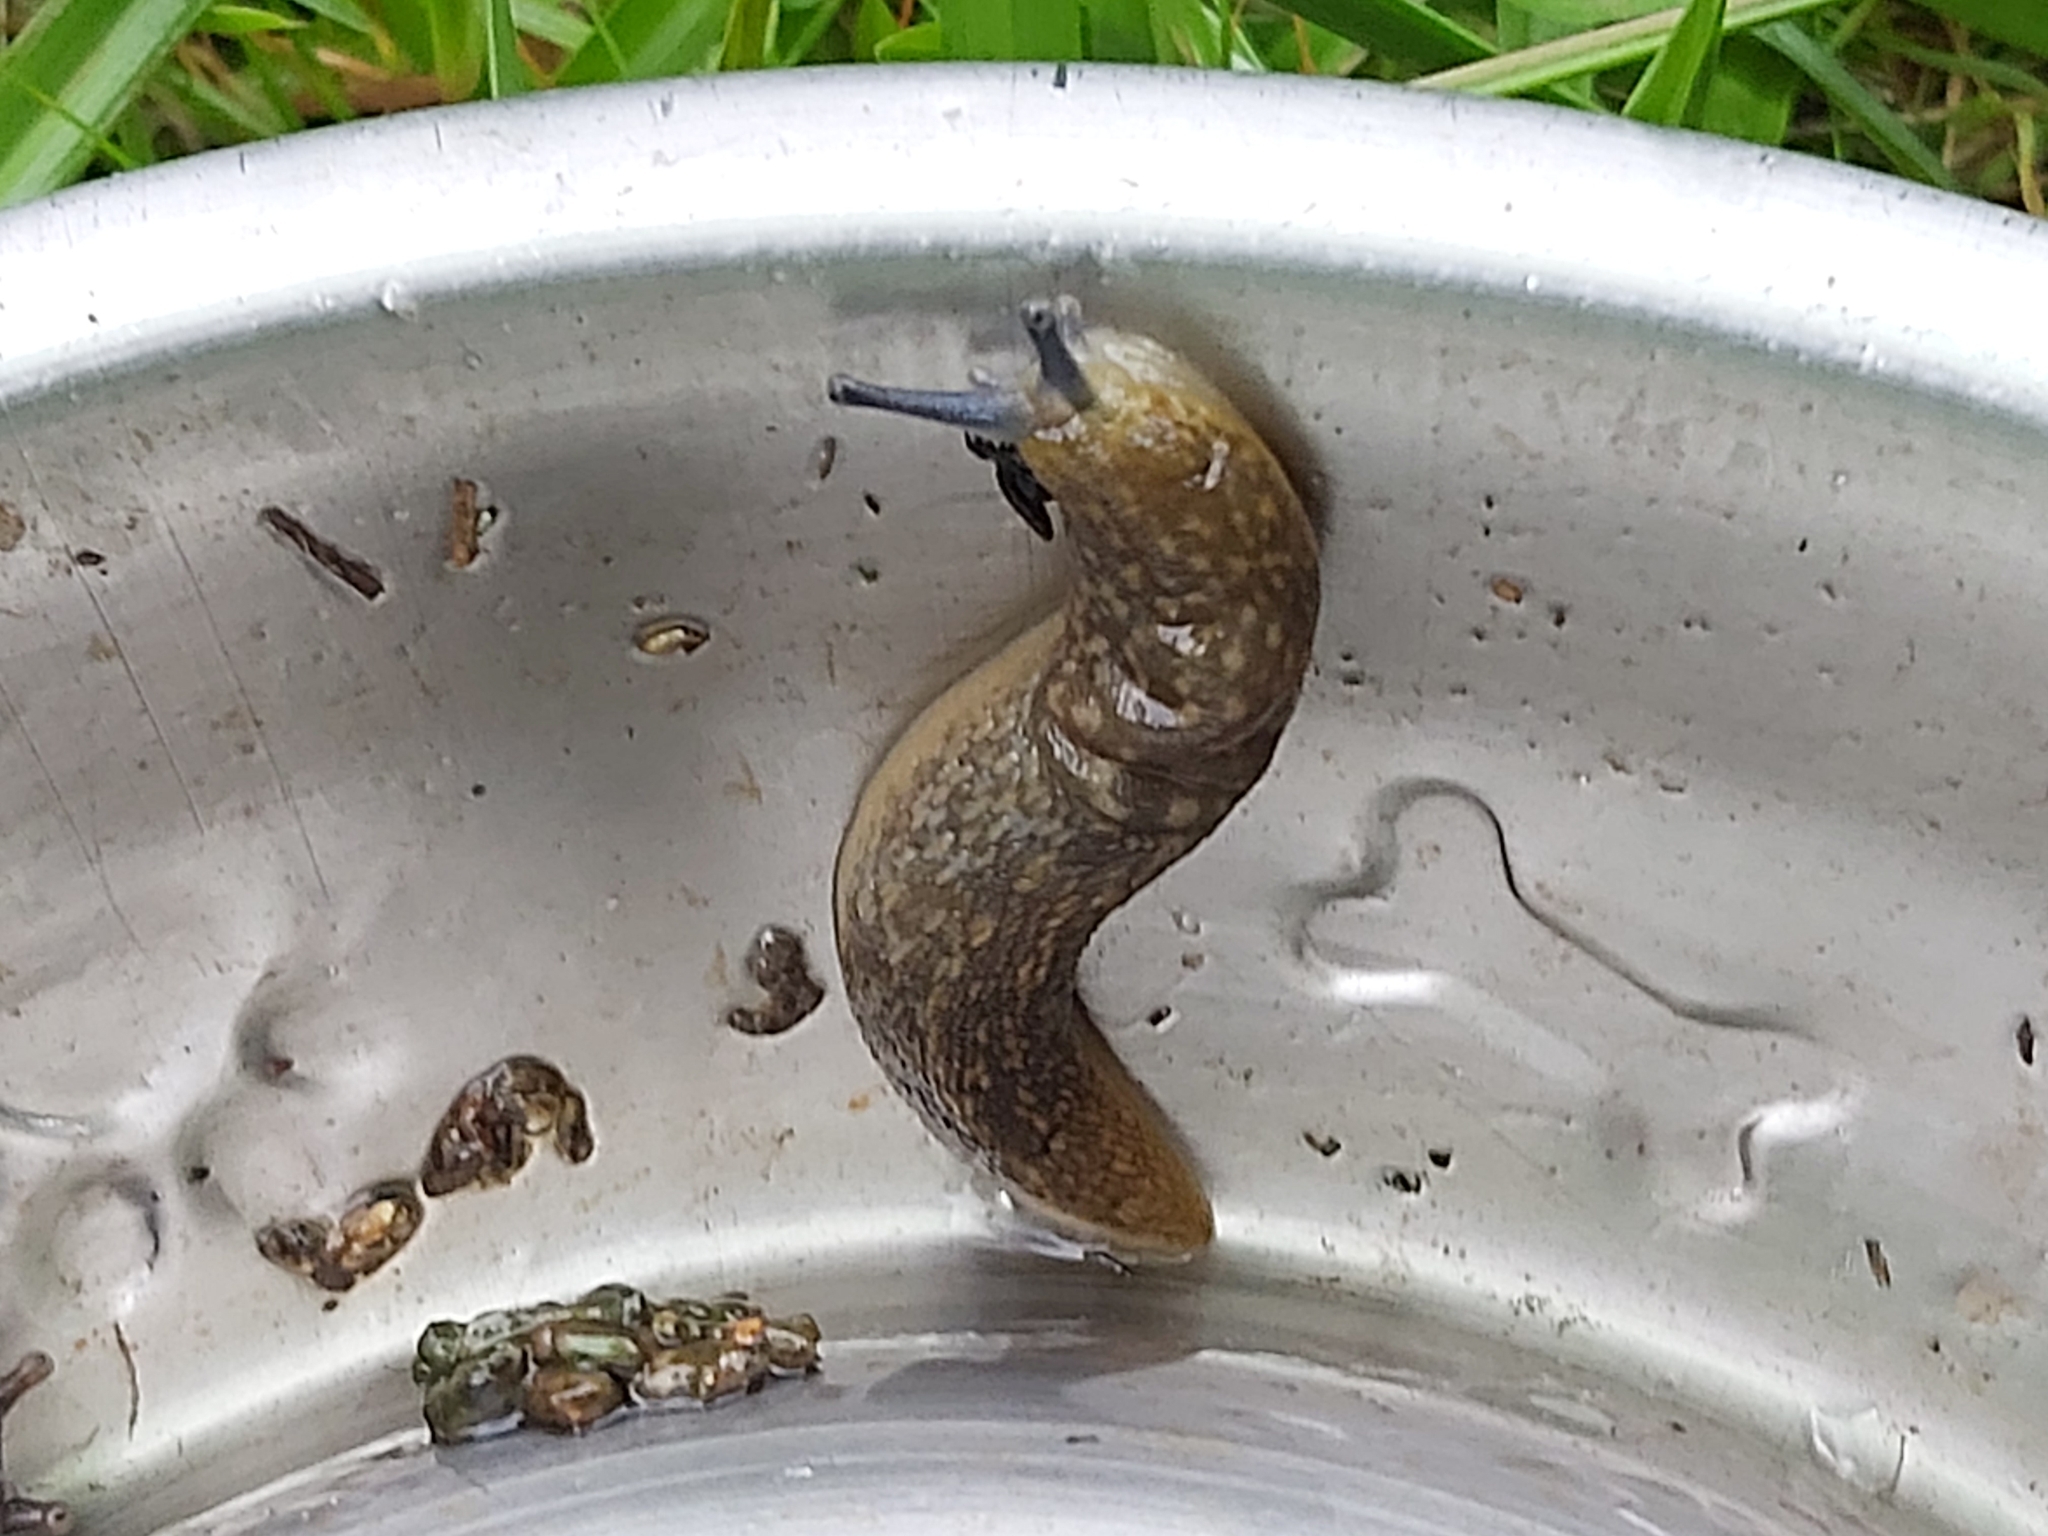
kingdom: Animalia
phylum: Mollusca
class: Gastropoda
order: Stylommatophora
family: Limacidae
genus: Limacus
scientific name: Limacus flavus
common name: Yellow gardenslug
